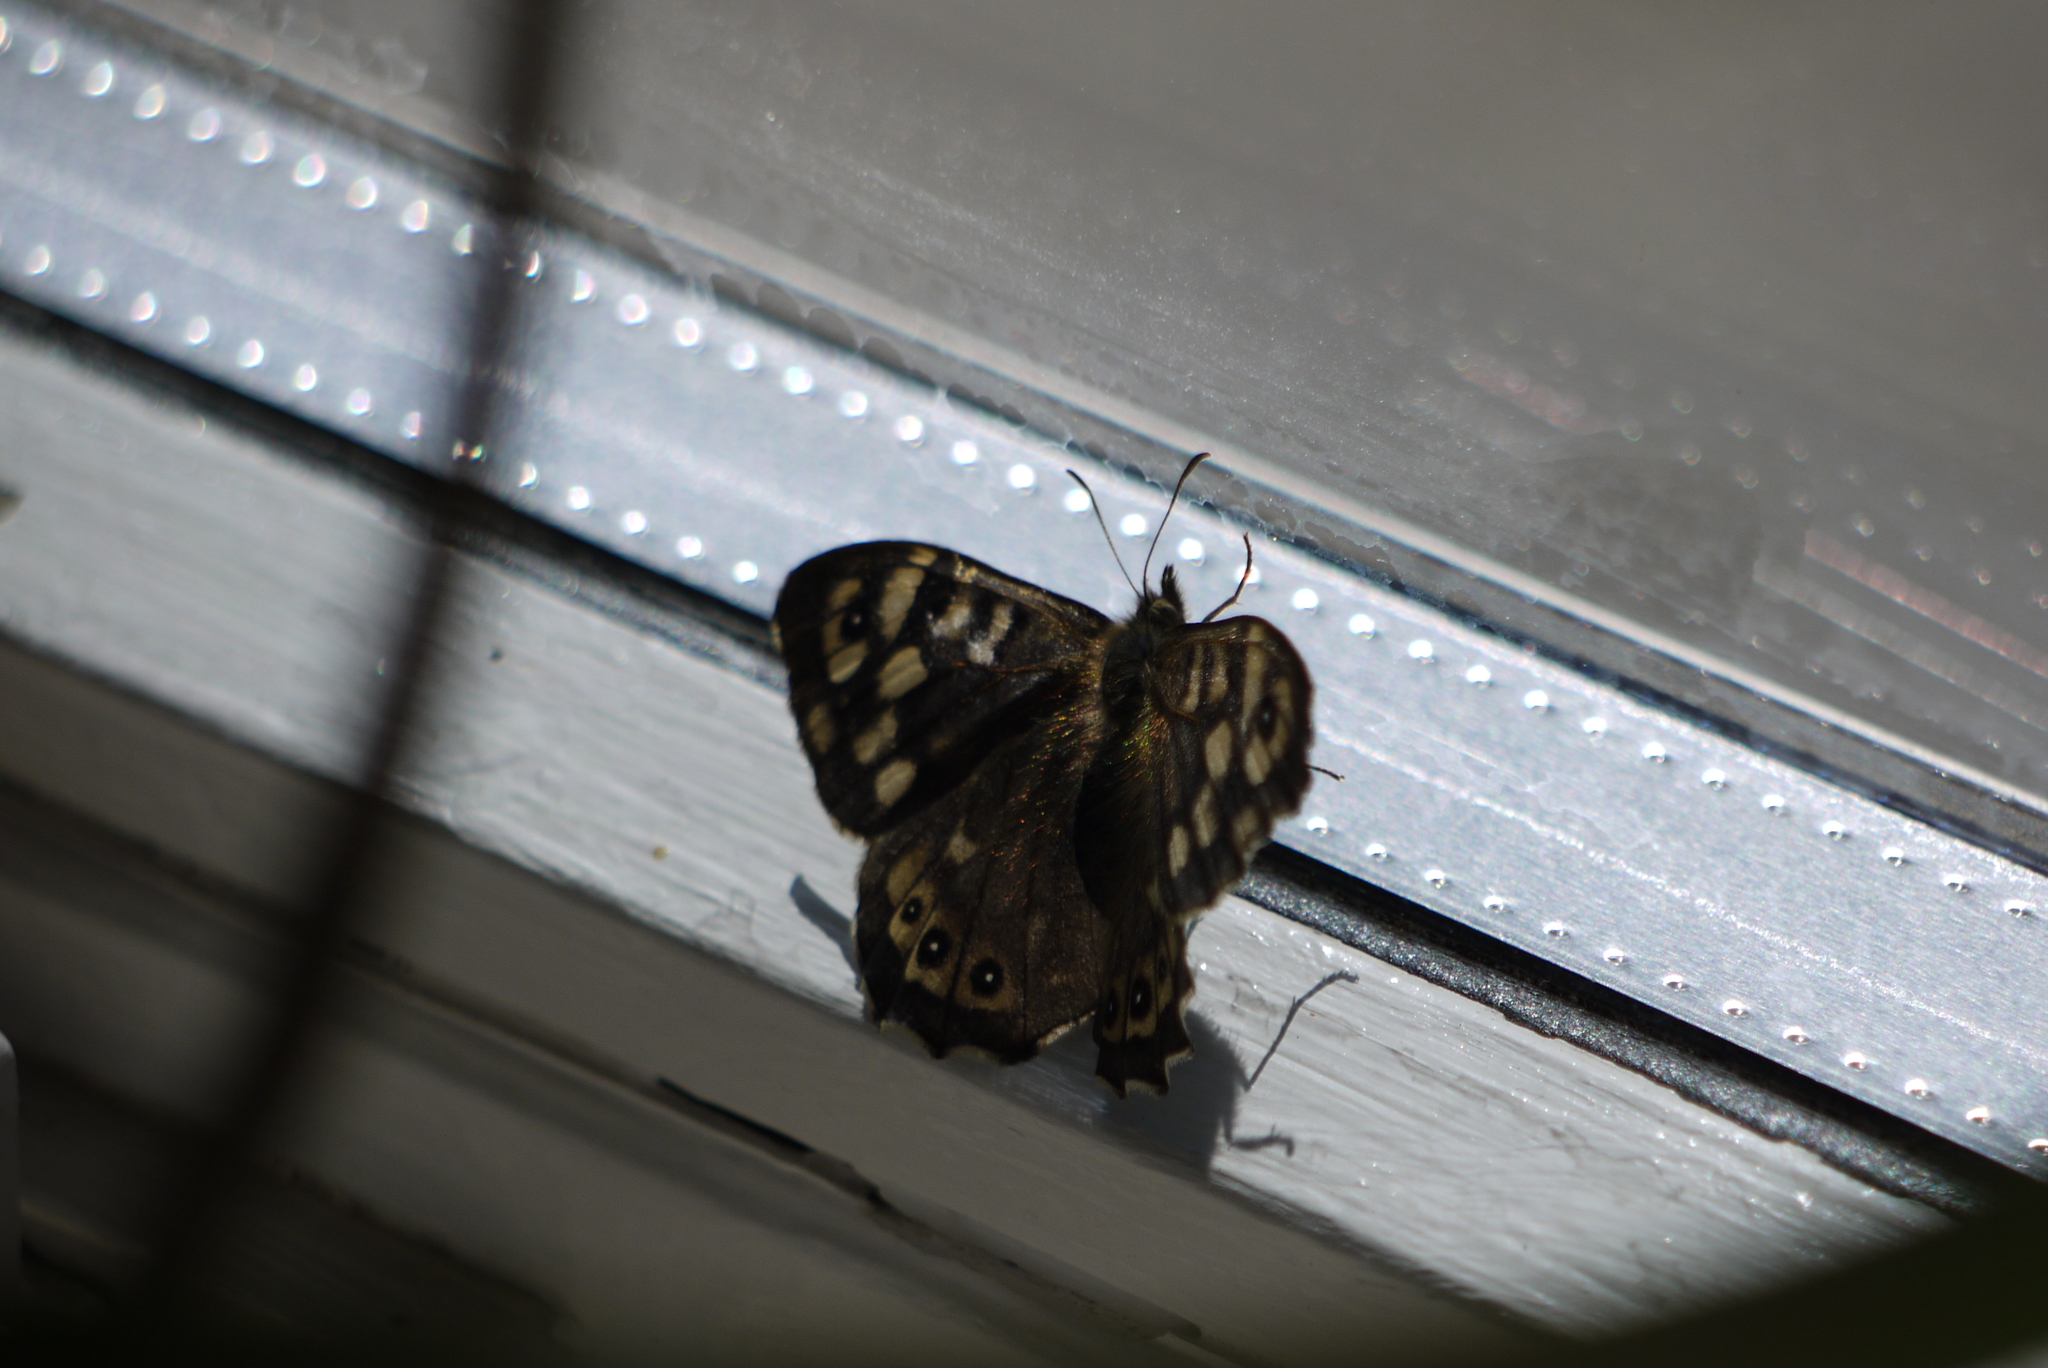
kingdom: Animalia
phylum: Arthropoda
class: Insecta
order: Lepidoptera
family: Nymphalidae
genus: Pararge
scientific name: Pararge aegeria
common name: Speckled wood
